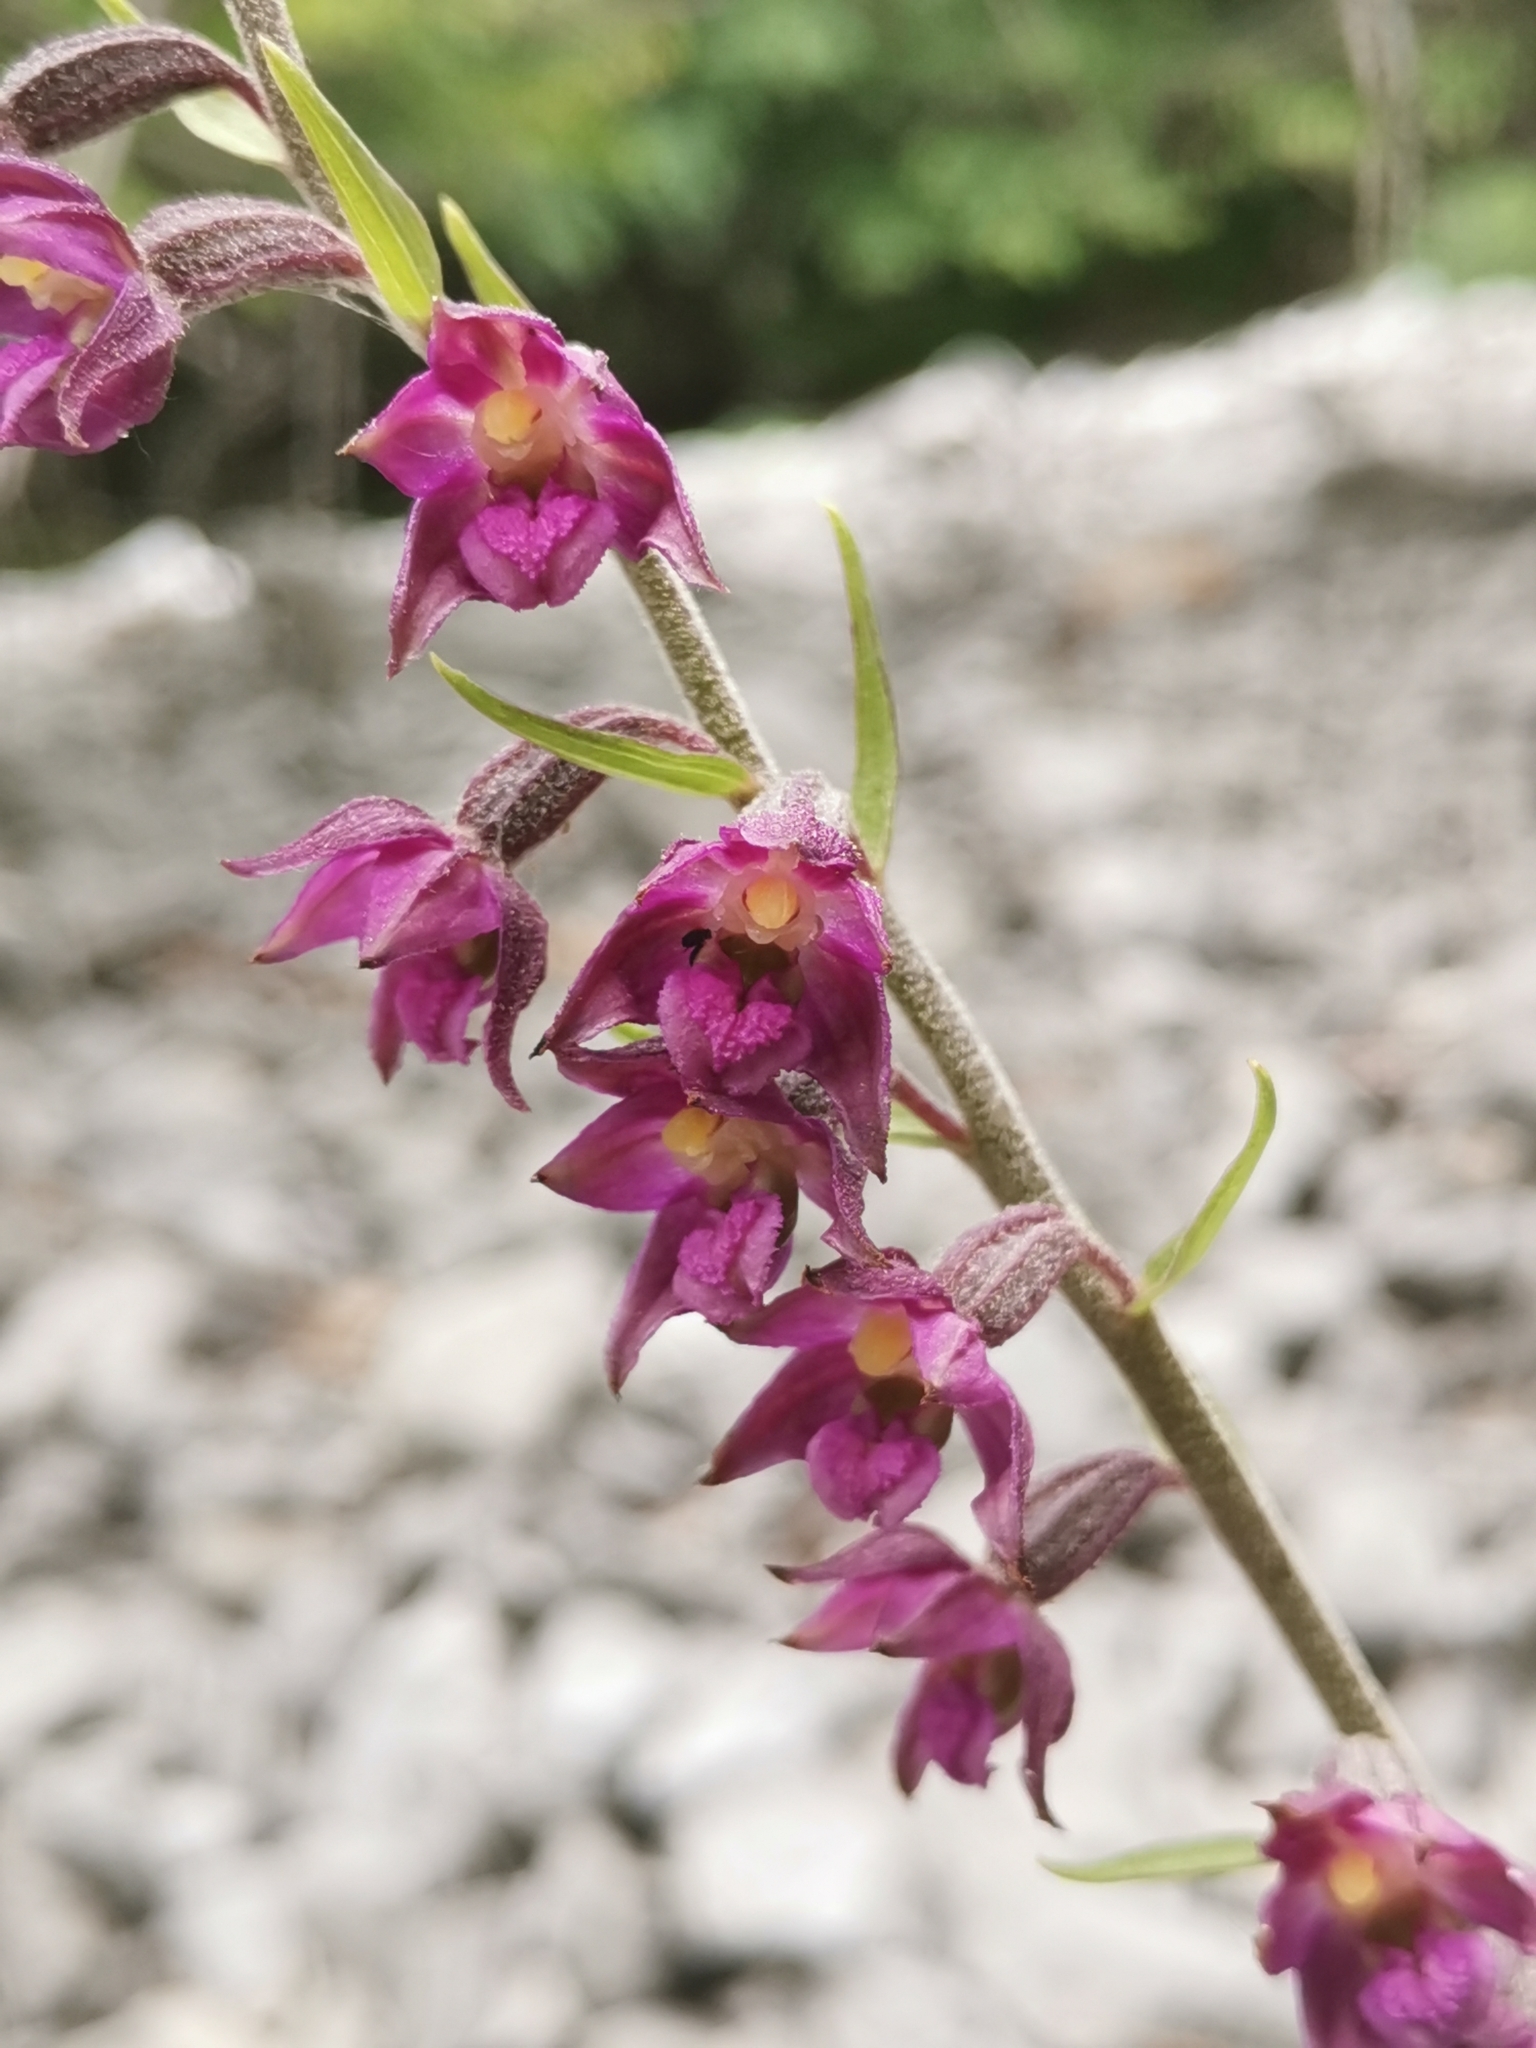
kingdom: Plantae
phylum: Tracheophyta
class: Liliopsida
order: Asparagales
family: Orchidaceae
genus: Epipactis
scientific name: Epipactis atrorubens
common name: Dark-red helleborine
